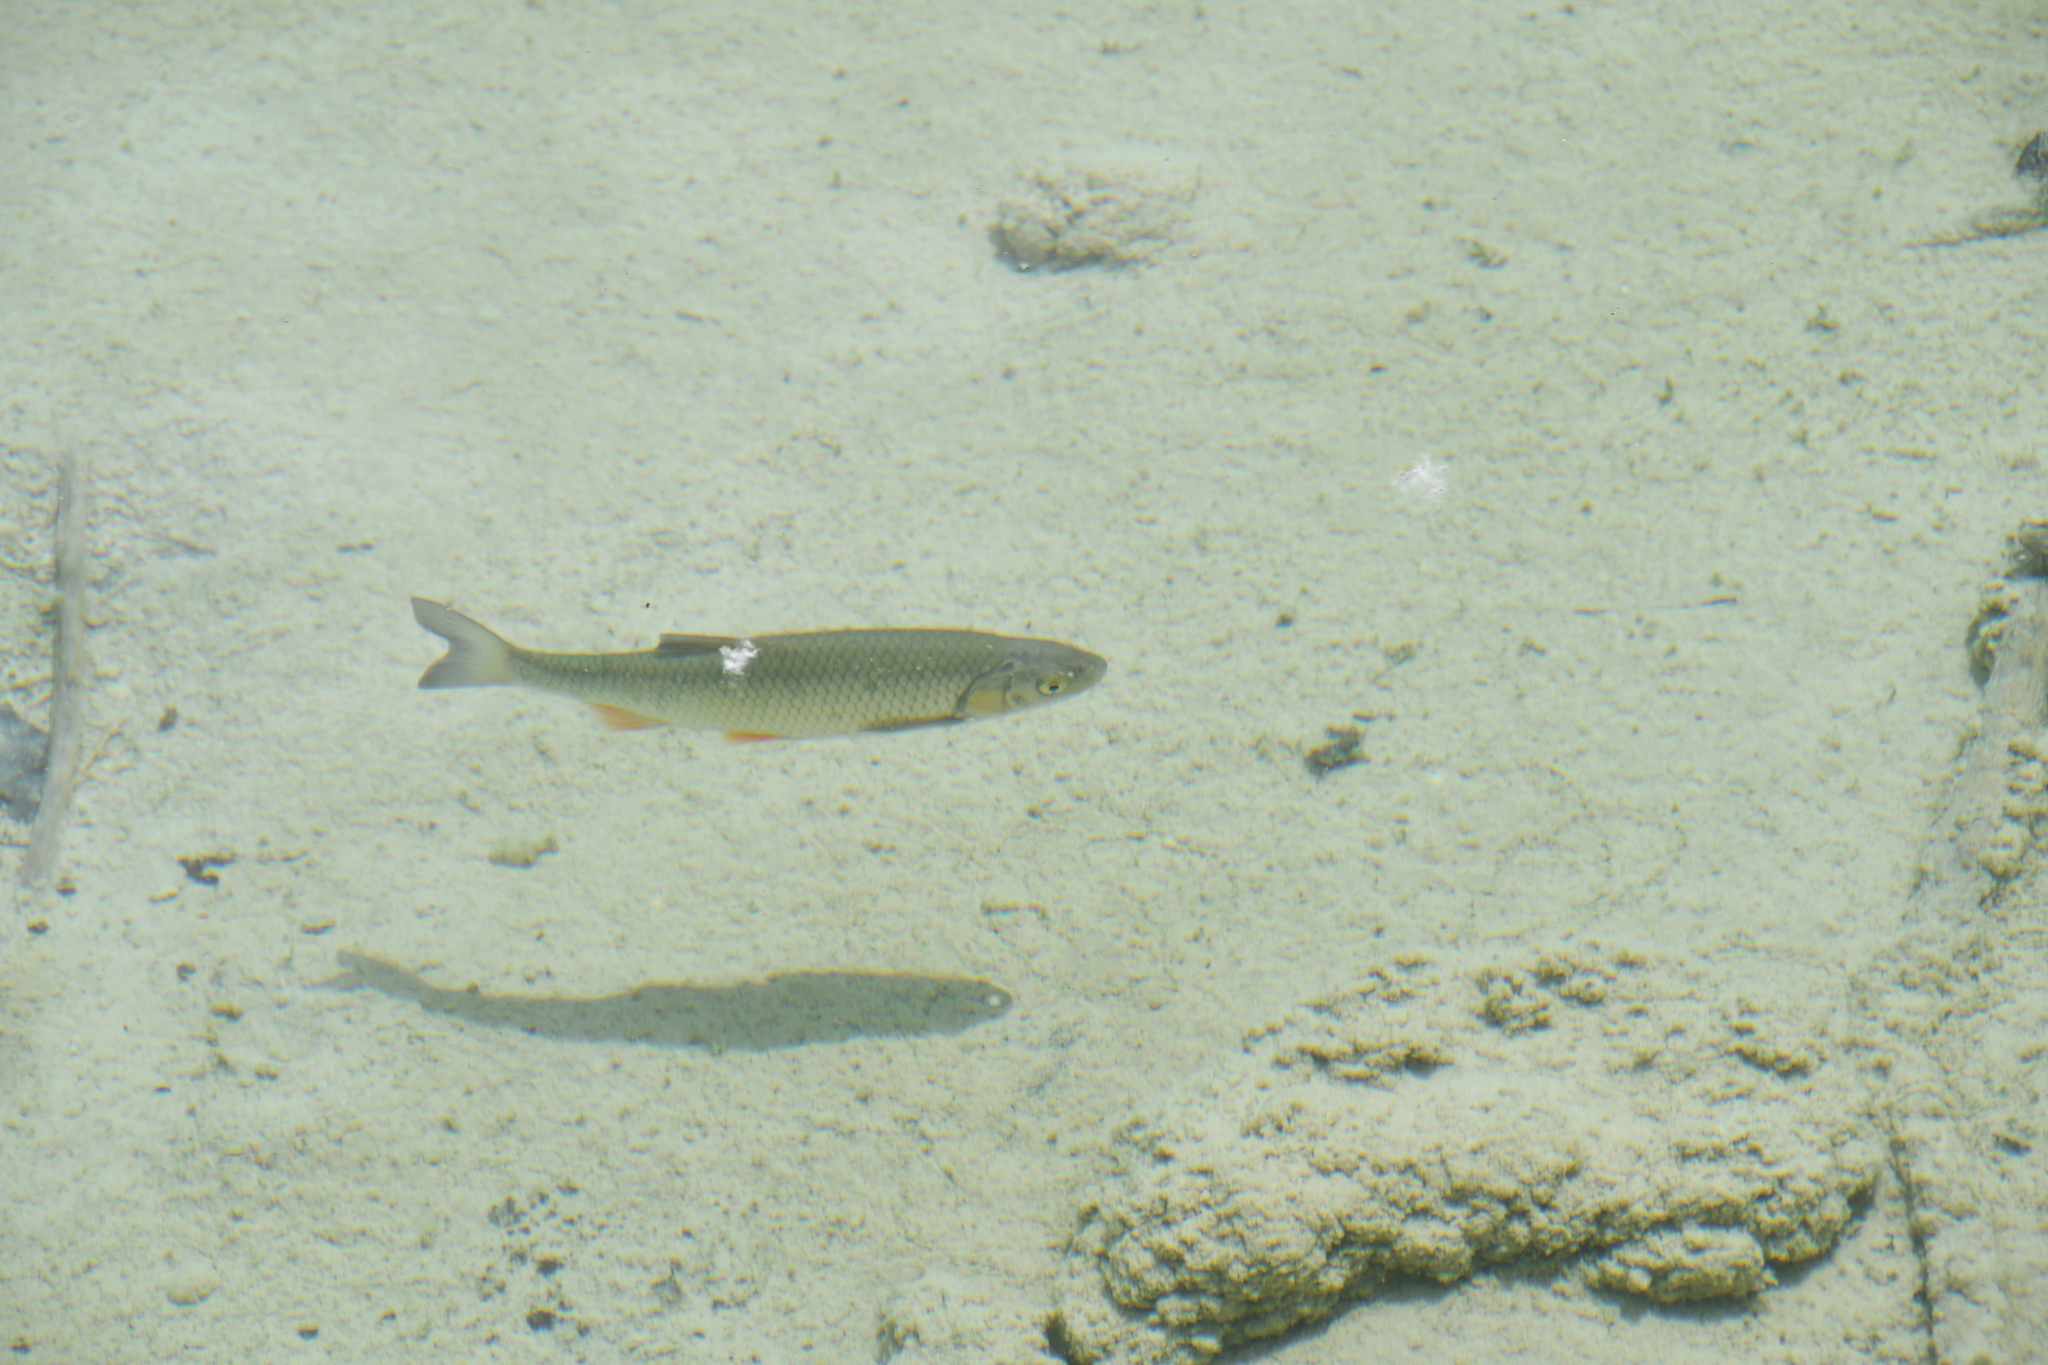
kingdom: Animalia
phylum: Chordata
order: Cypriniformes
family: Cyprinidae
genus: Squalius
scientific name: Squalius cephalus
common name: Chub
